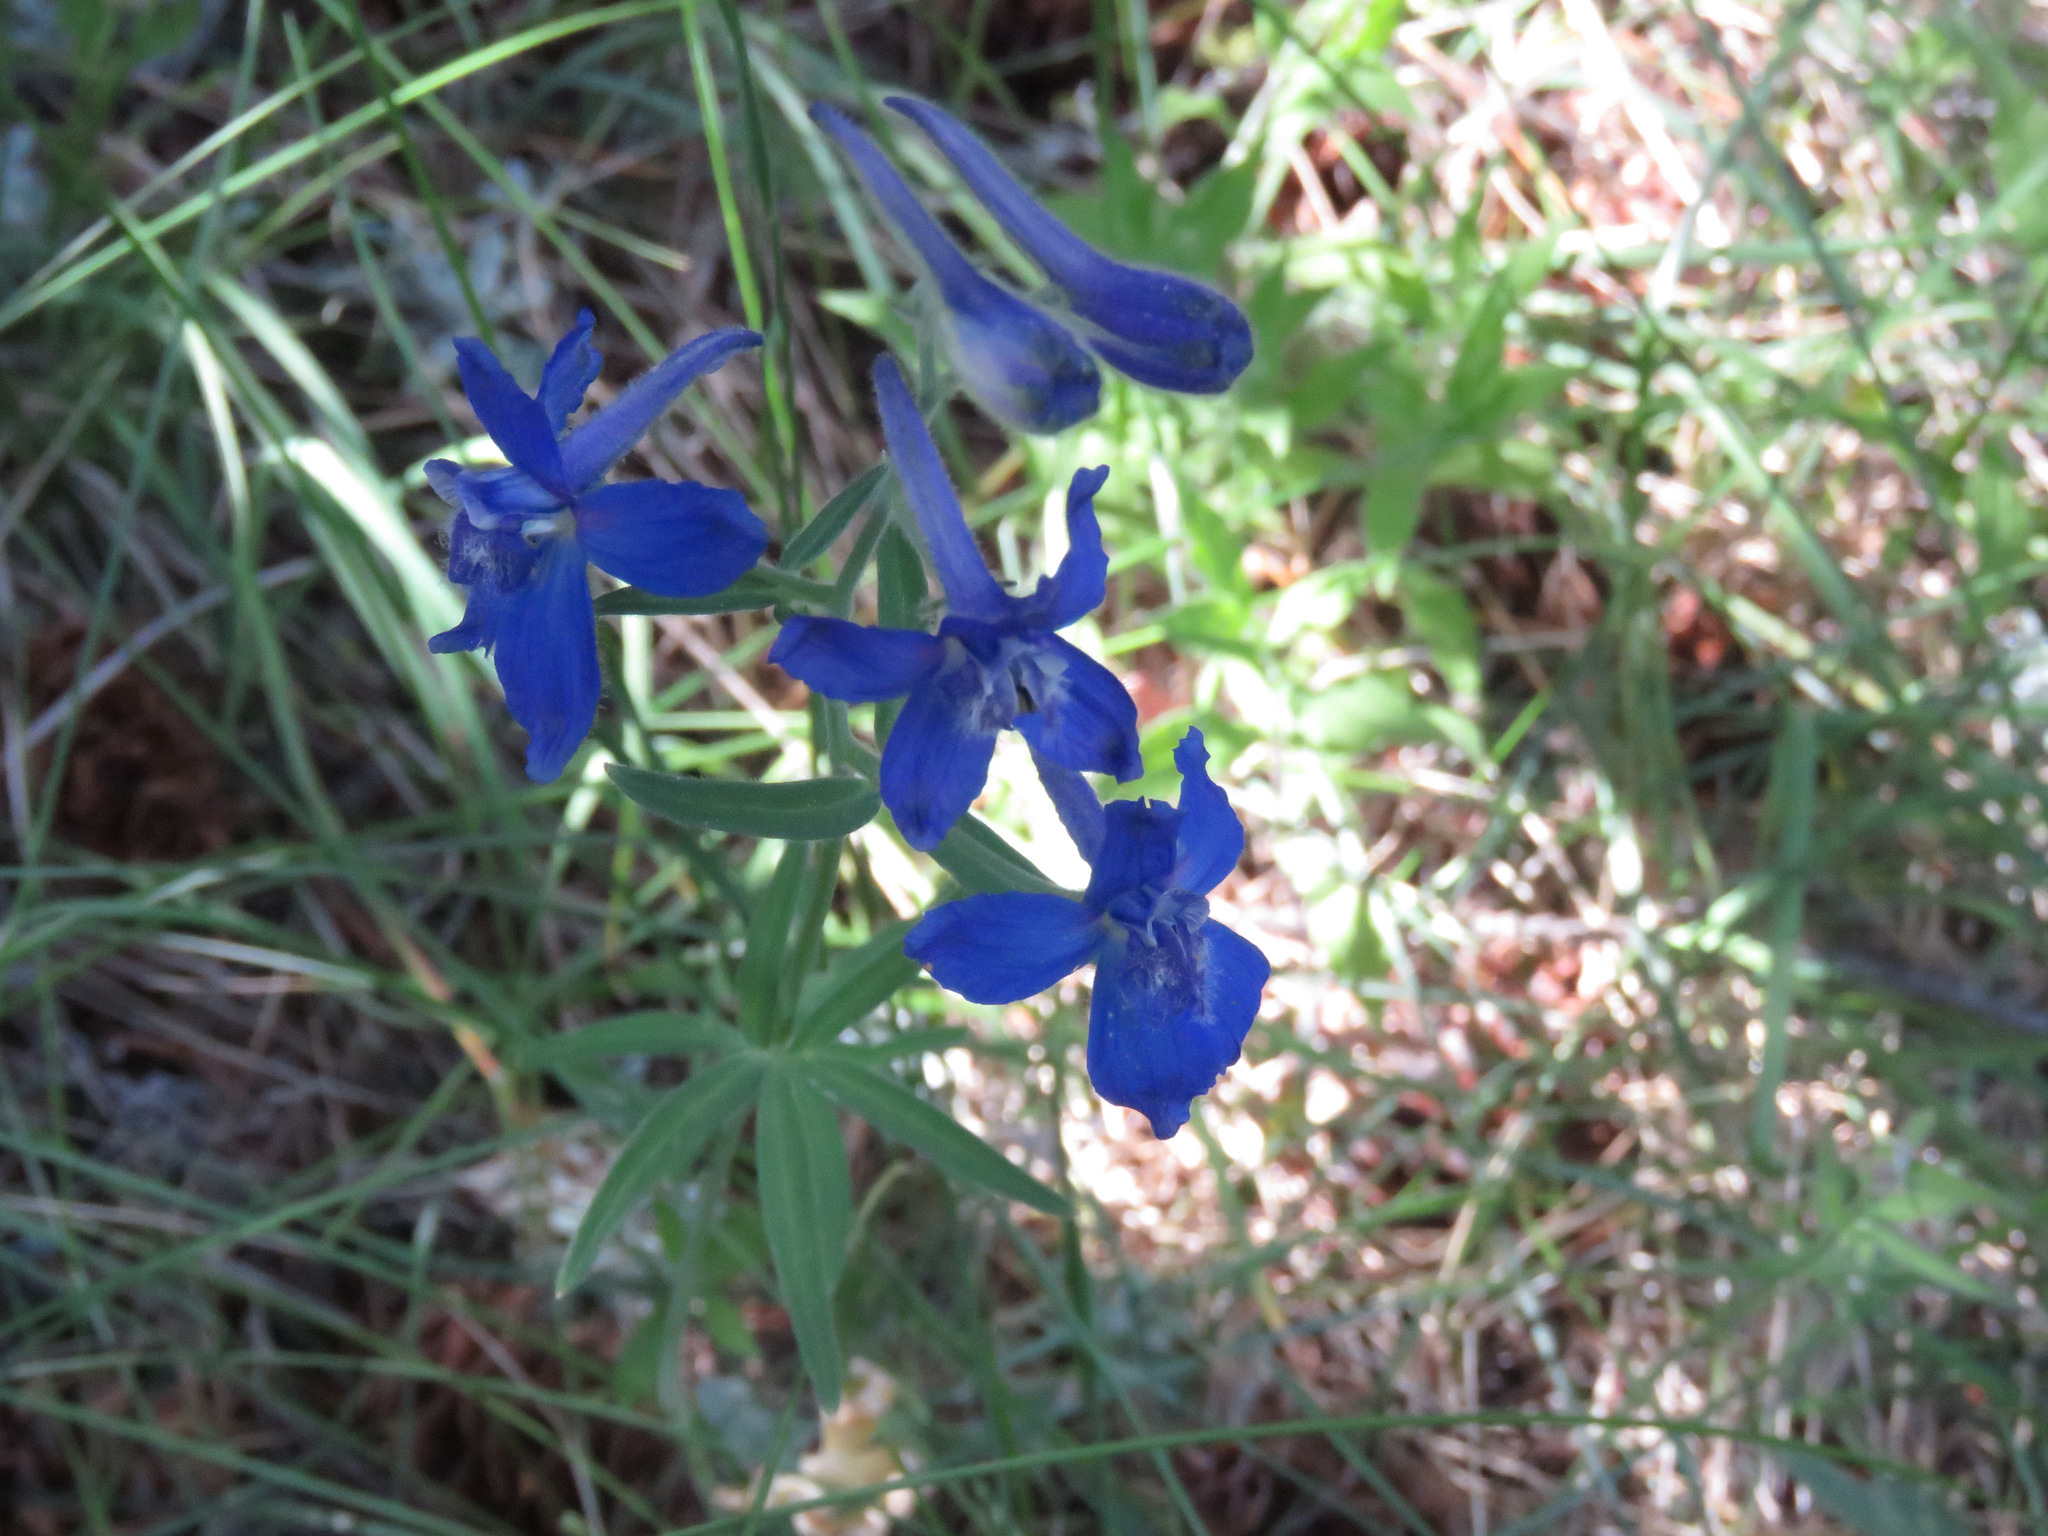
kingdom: Plantae
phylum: Tracheophyta
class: Magnoliopsida
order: Ranunculales
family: Ranunculaceae
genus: Delphinium
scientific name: Delphinium nuttallianum
